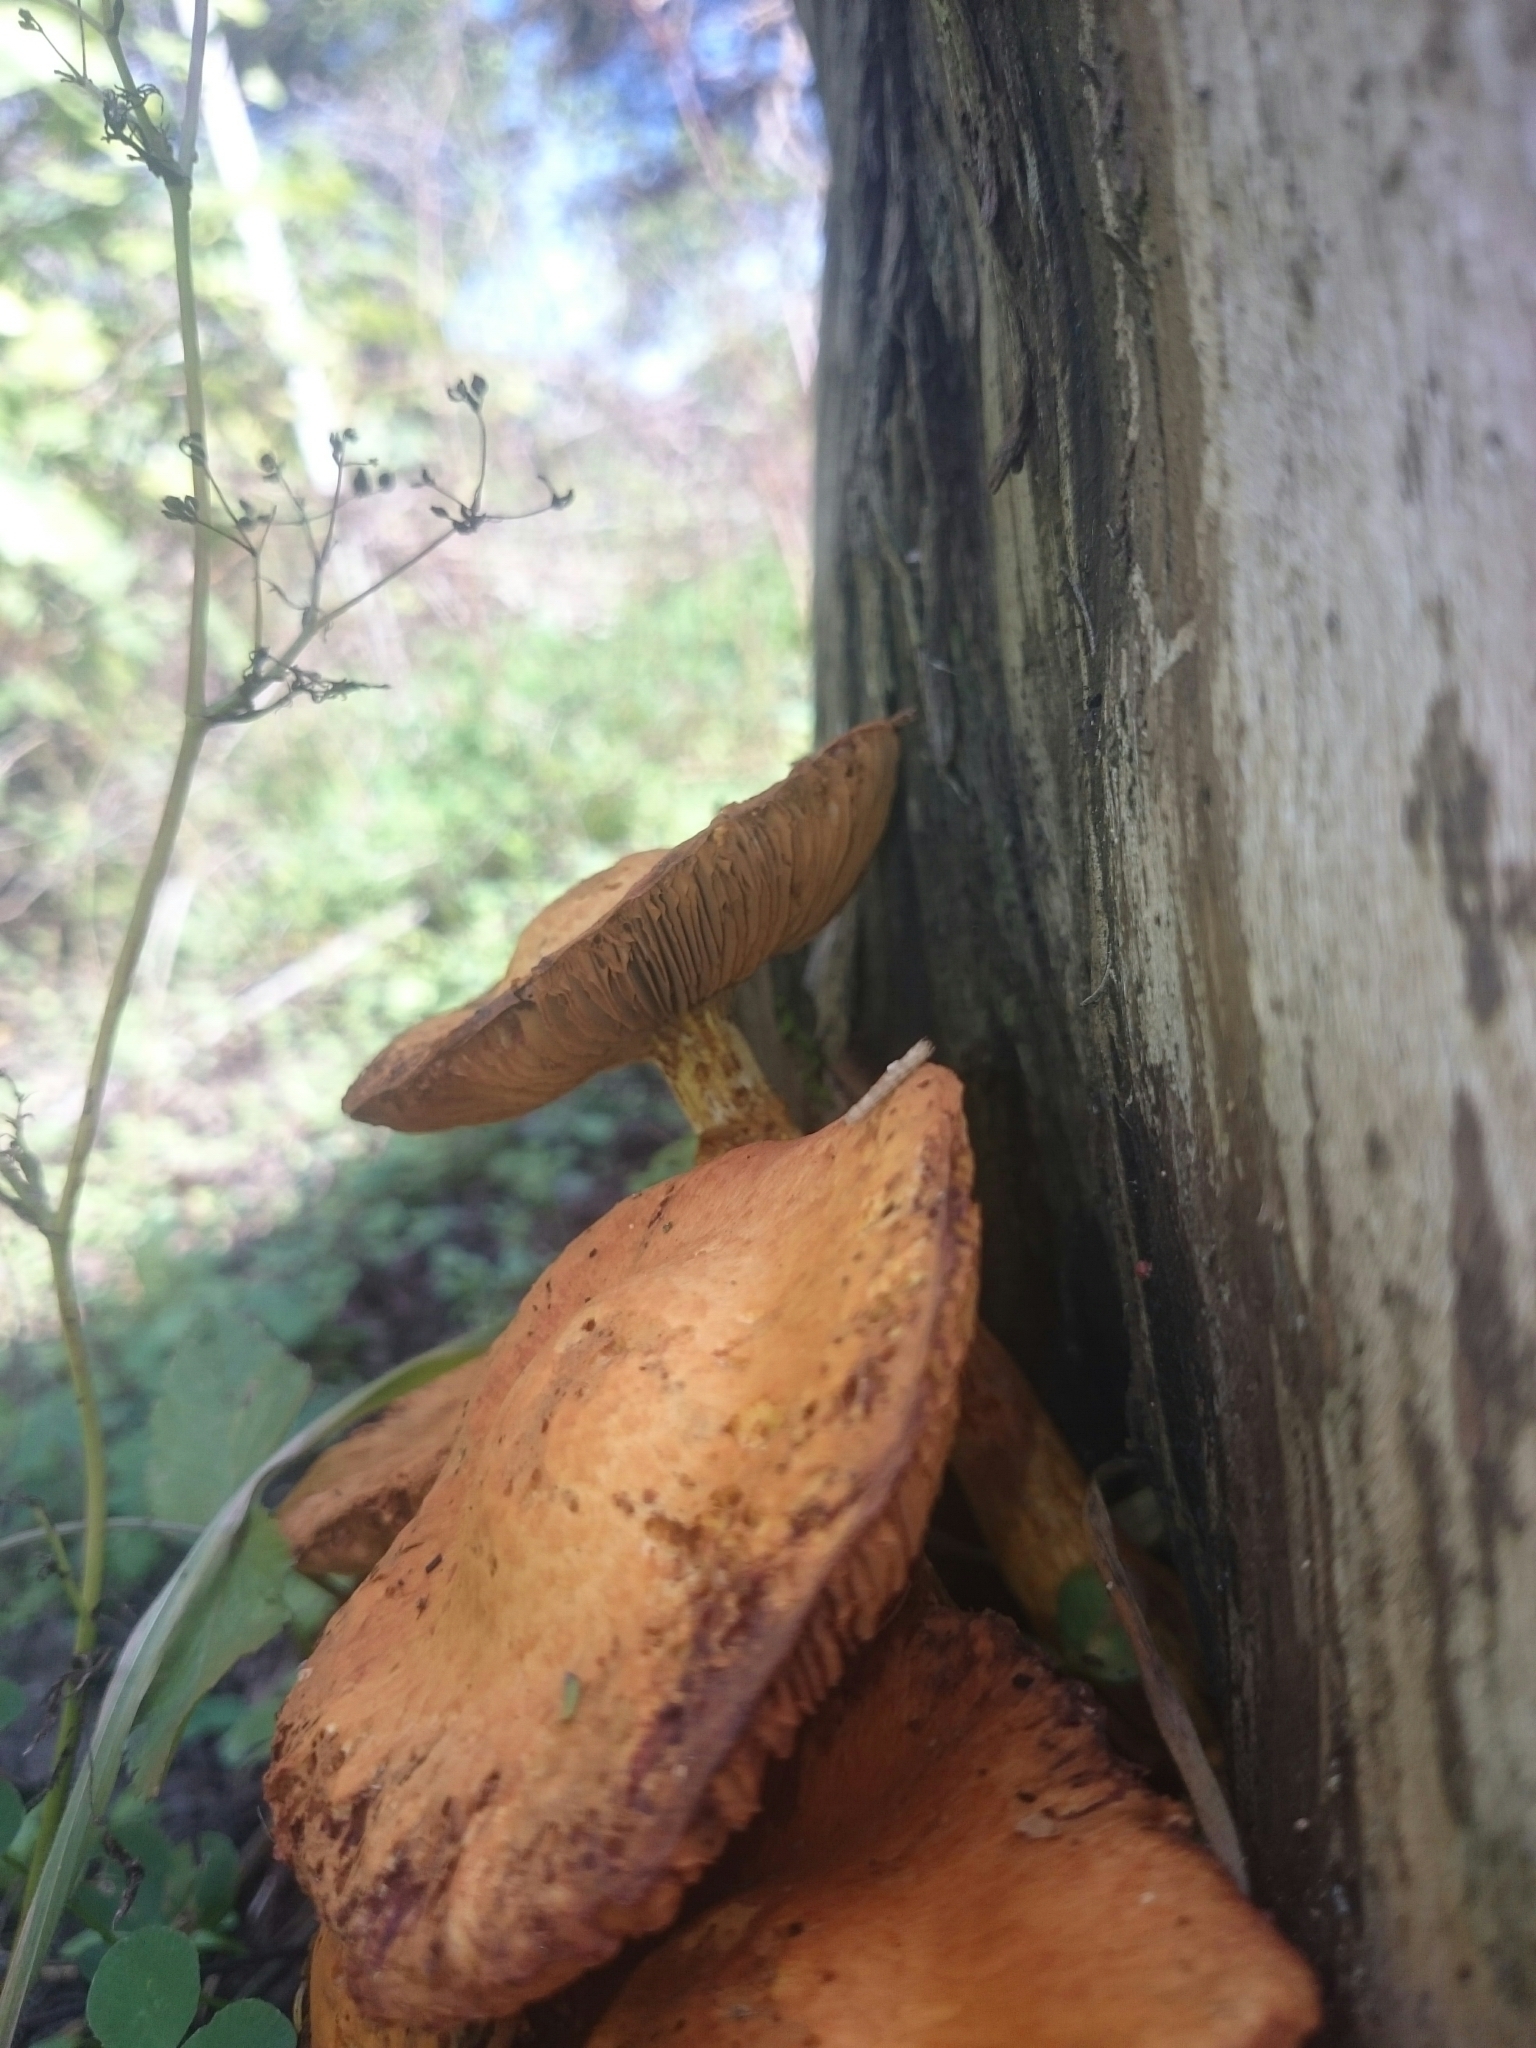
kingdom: Fungi
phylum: Basidiomycota
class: Agaricomycetes
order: Agaricales
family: Hymenogastraceae
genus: Gymnopilus
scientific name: Gymnopilus junonius
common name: Spectacular rustgill
